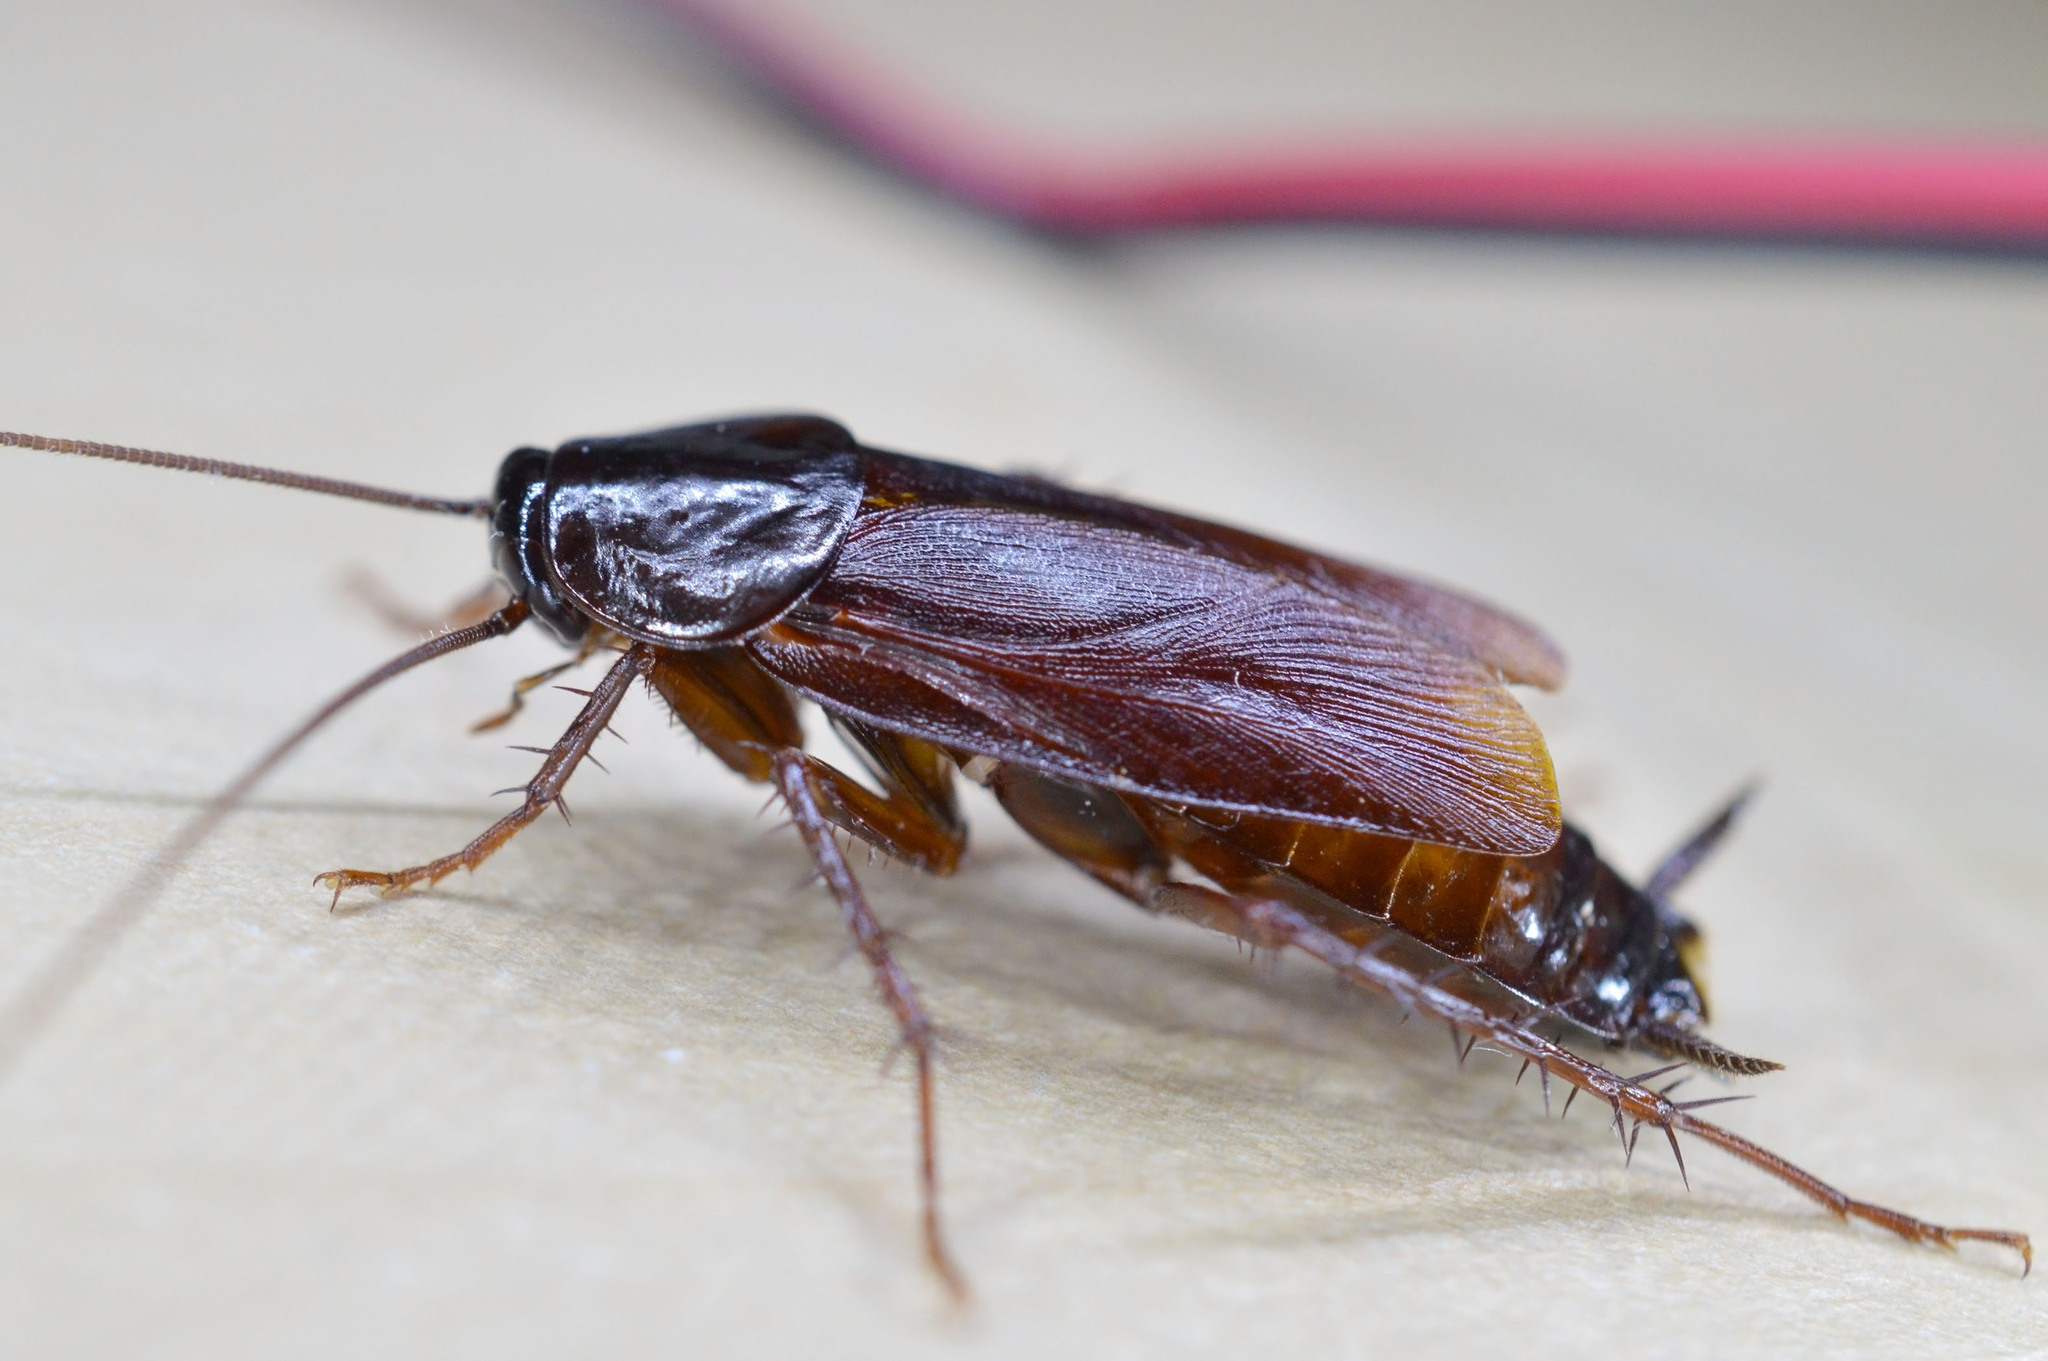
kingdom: Animalia
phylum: Arthropoda
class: Insecta
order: Blattodea
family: Blattidae
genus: Blatta
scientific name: Blatta orientalis
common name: Oriental cockroach
